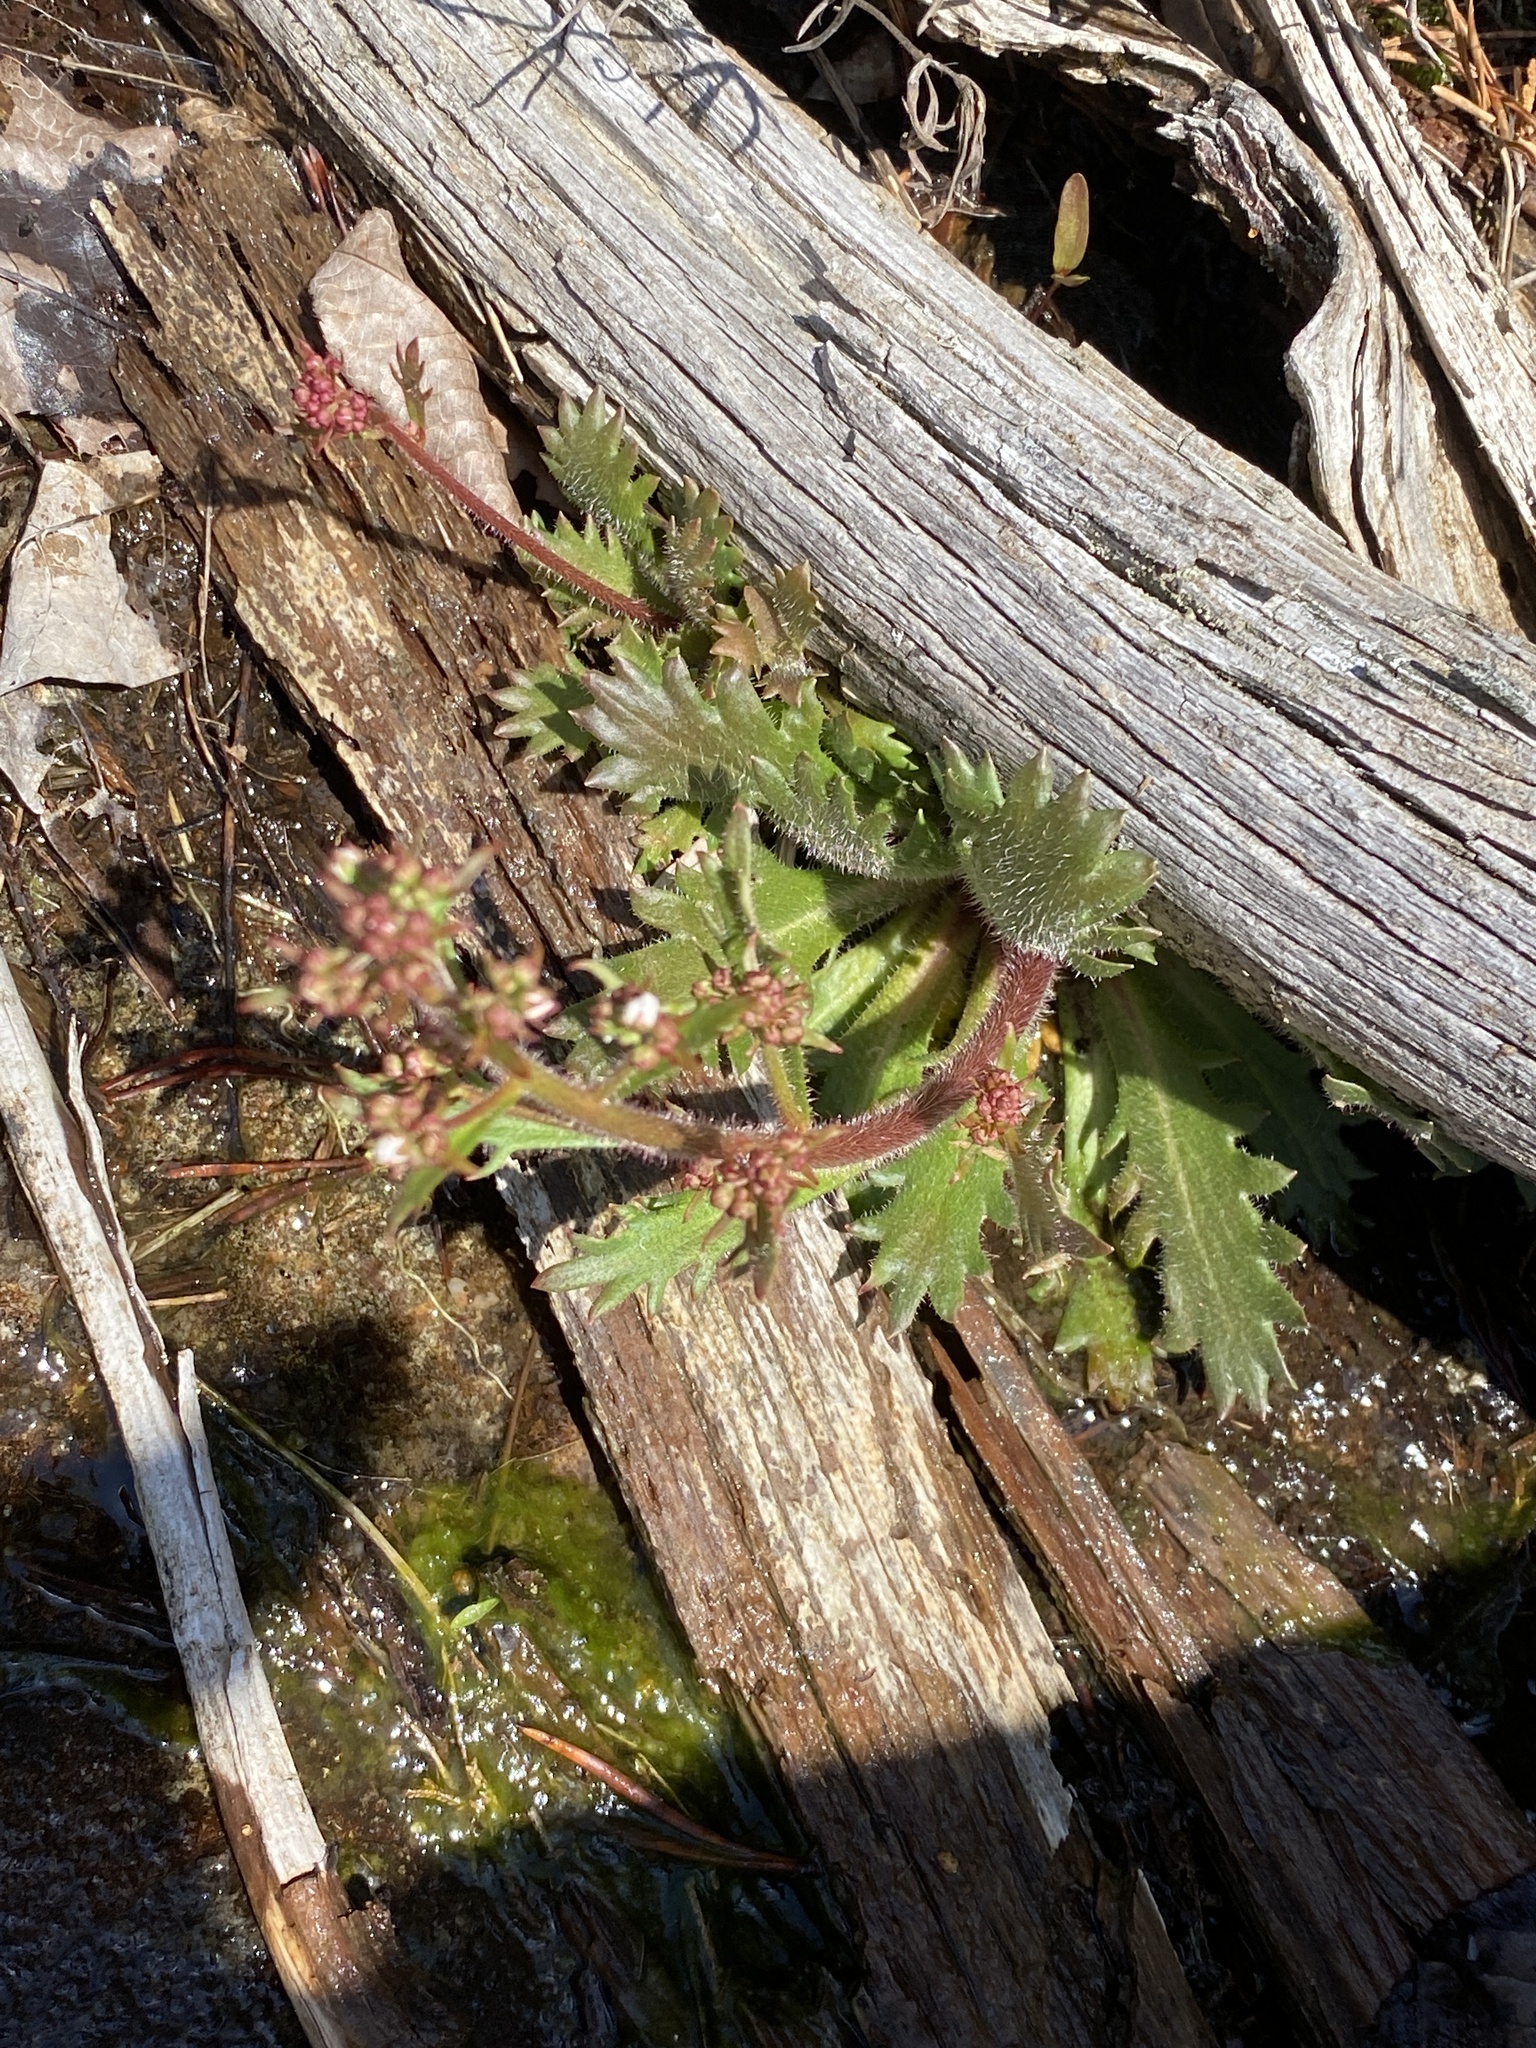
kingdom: Plantae
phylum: Tracheophyta
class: Magnoliopsida
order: Saxifragales
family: Saxifragaceae
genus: Micranthes
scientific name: Micranthes petiolaris
